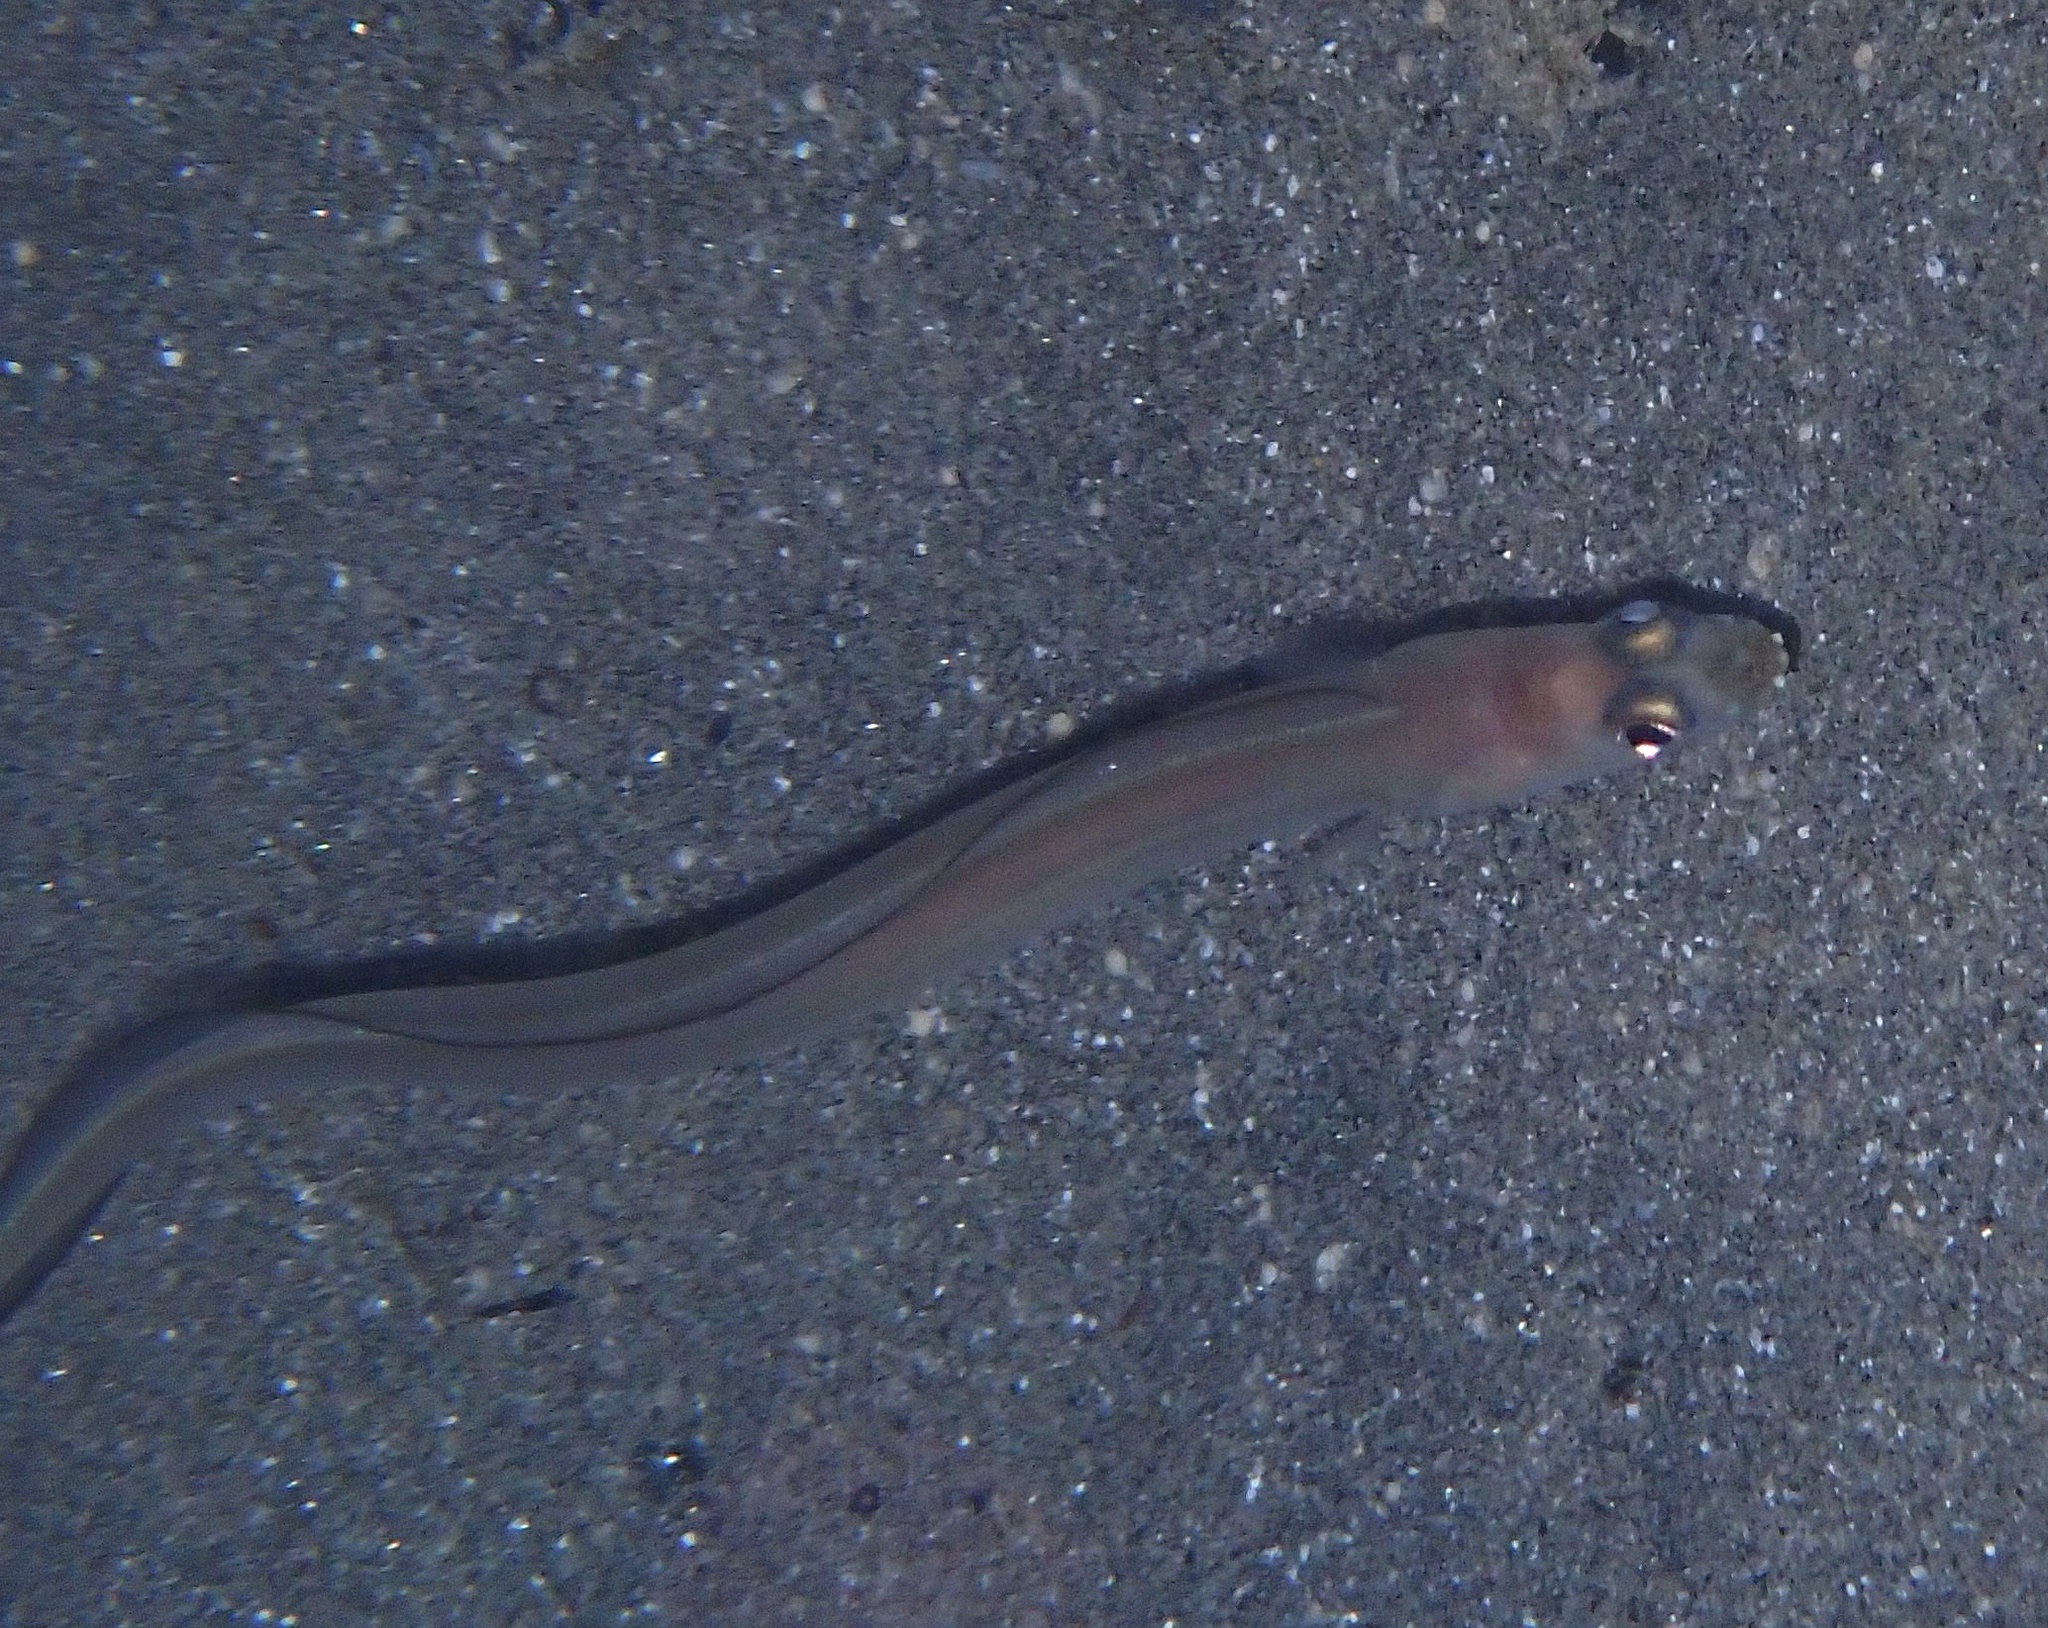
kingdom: Animalia
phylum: Chordata
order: Anguilliformes
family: Congridae
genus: Ariosoma
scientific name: Ariosoma sanzoi
